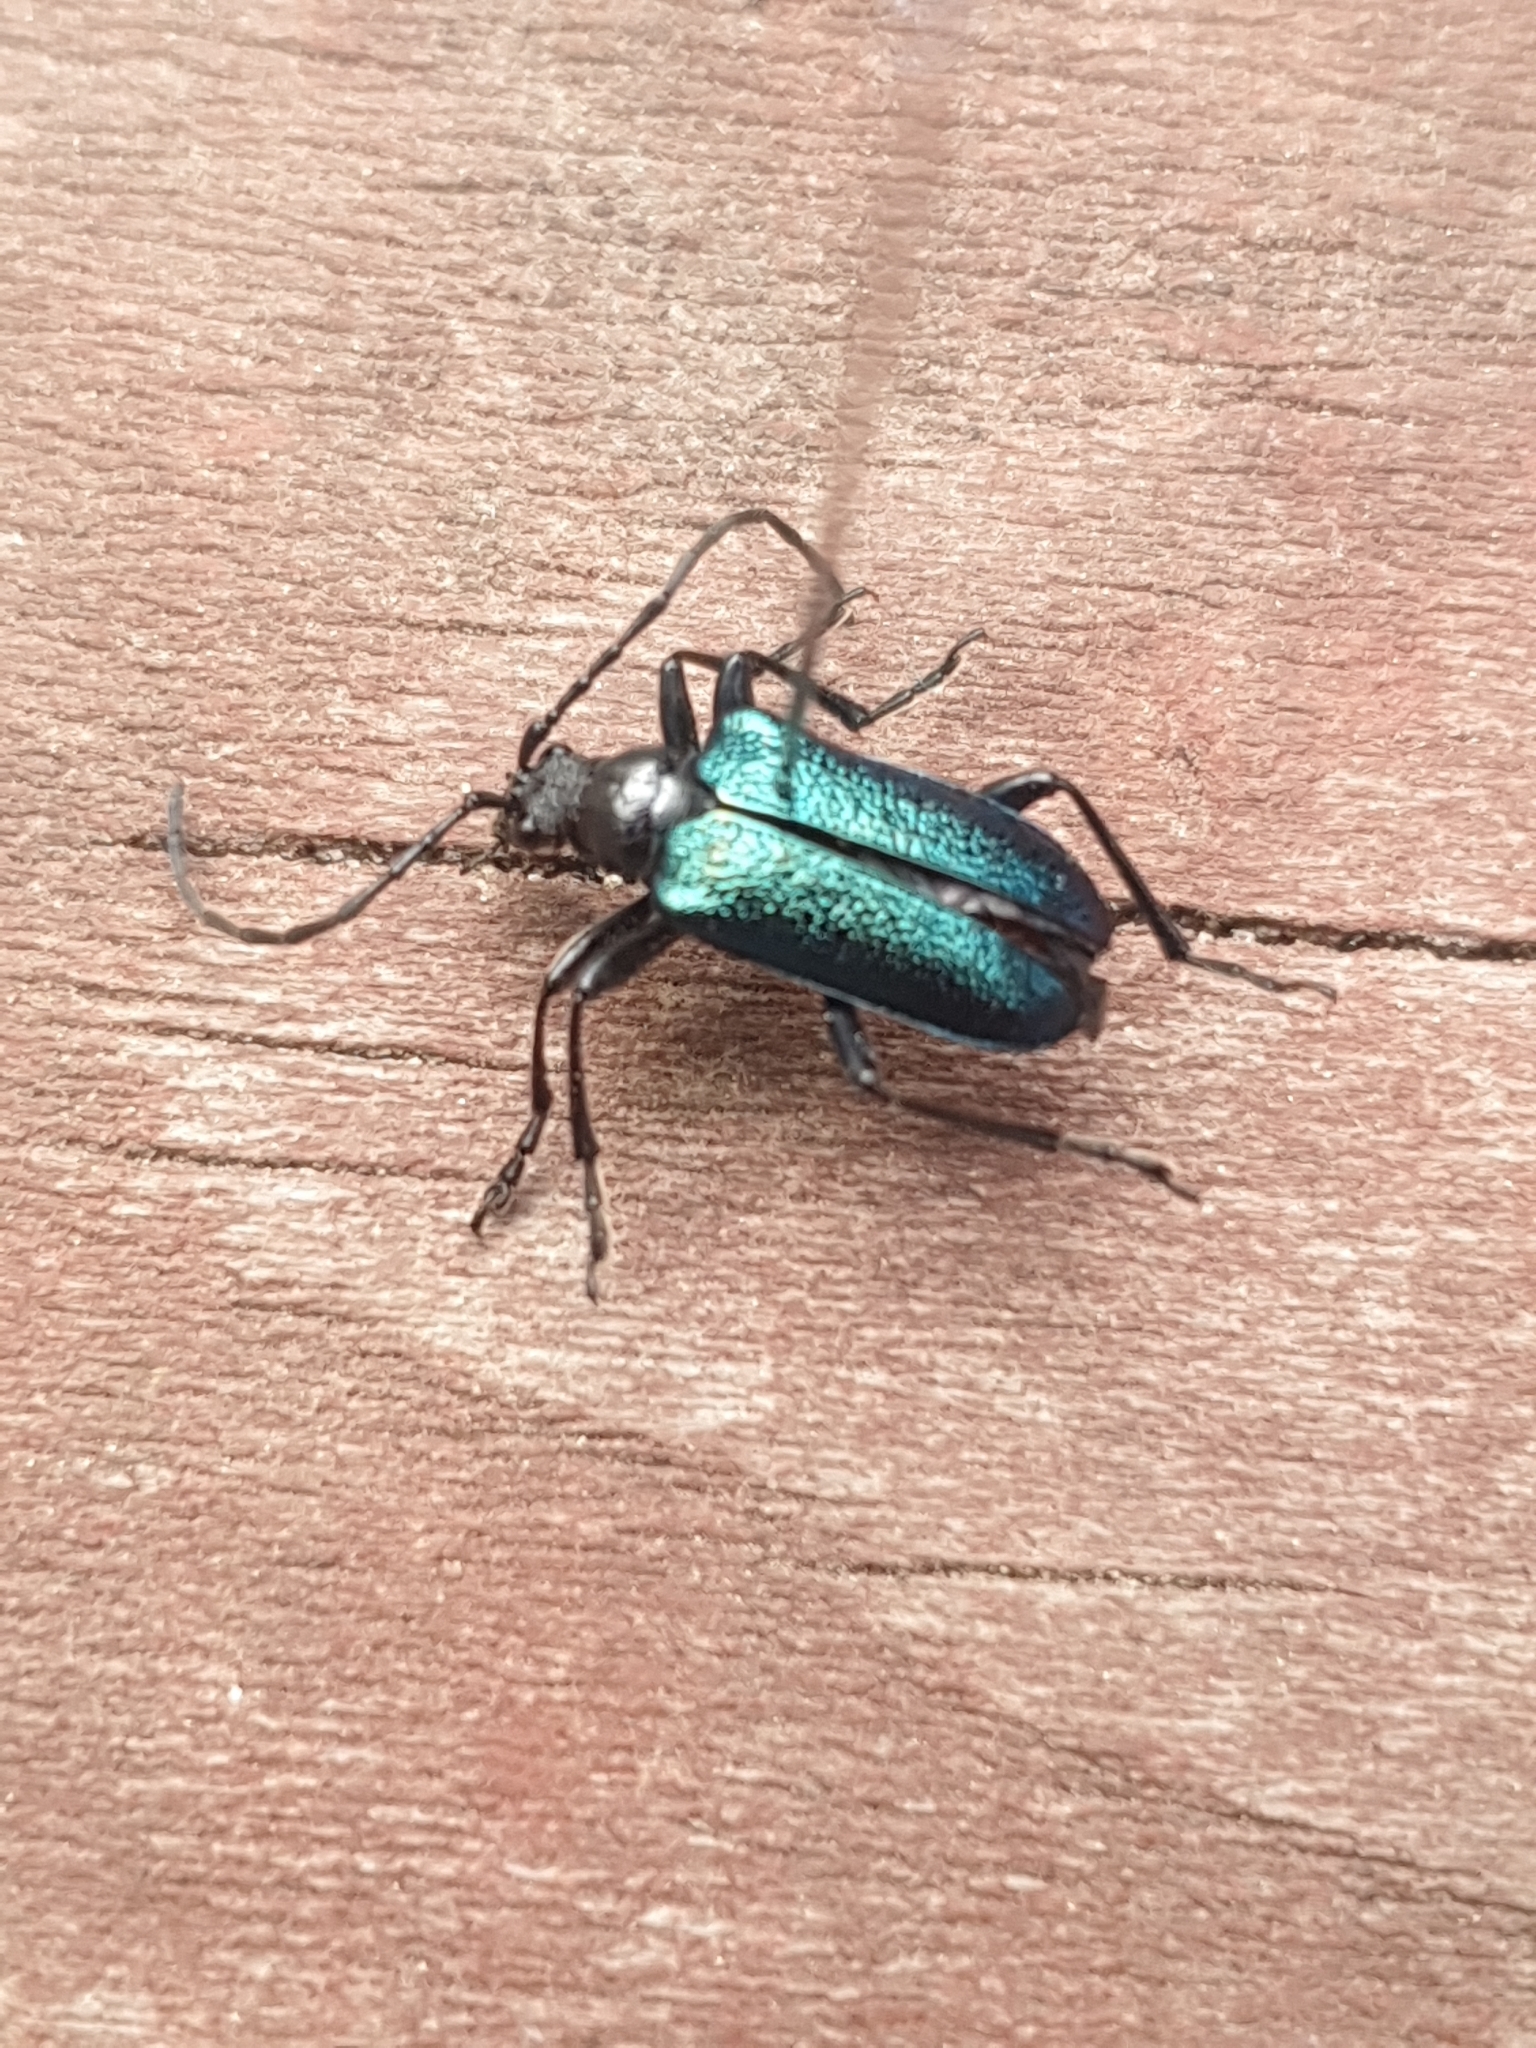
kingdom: Animalia
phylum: Arthropoda
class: Insecta
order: Coleoptera
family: Cerambycidae
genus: Gaurotes
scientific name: Gaurotes virginea
